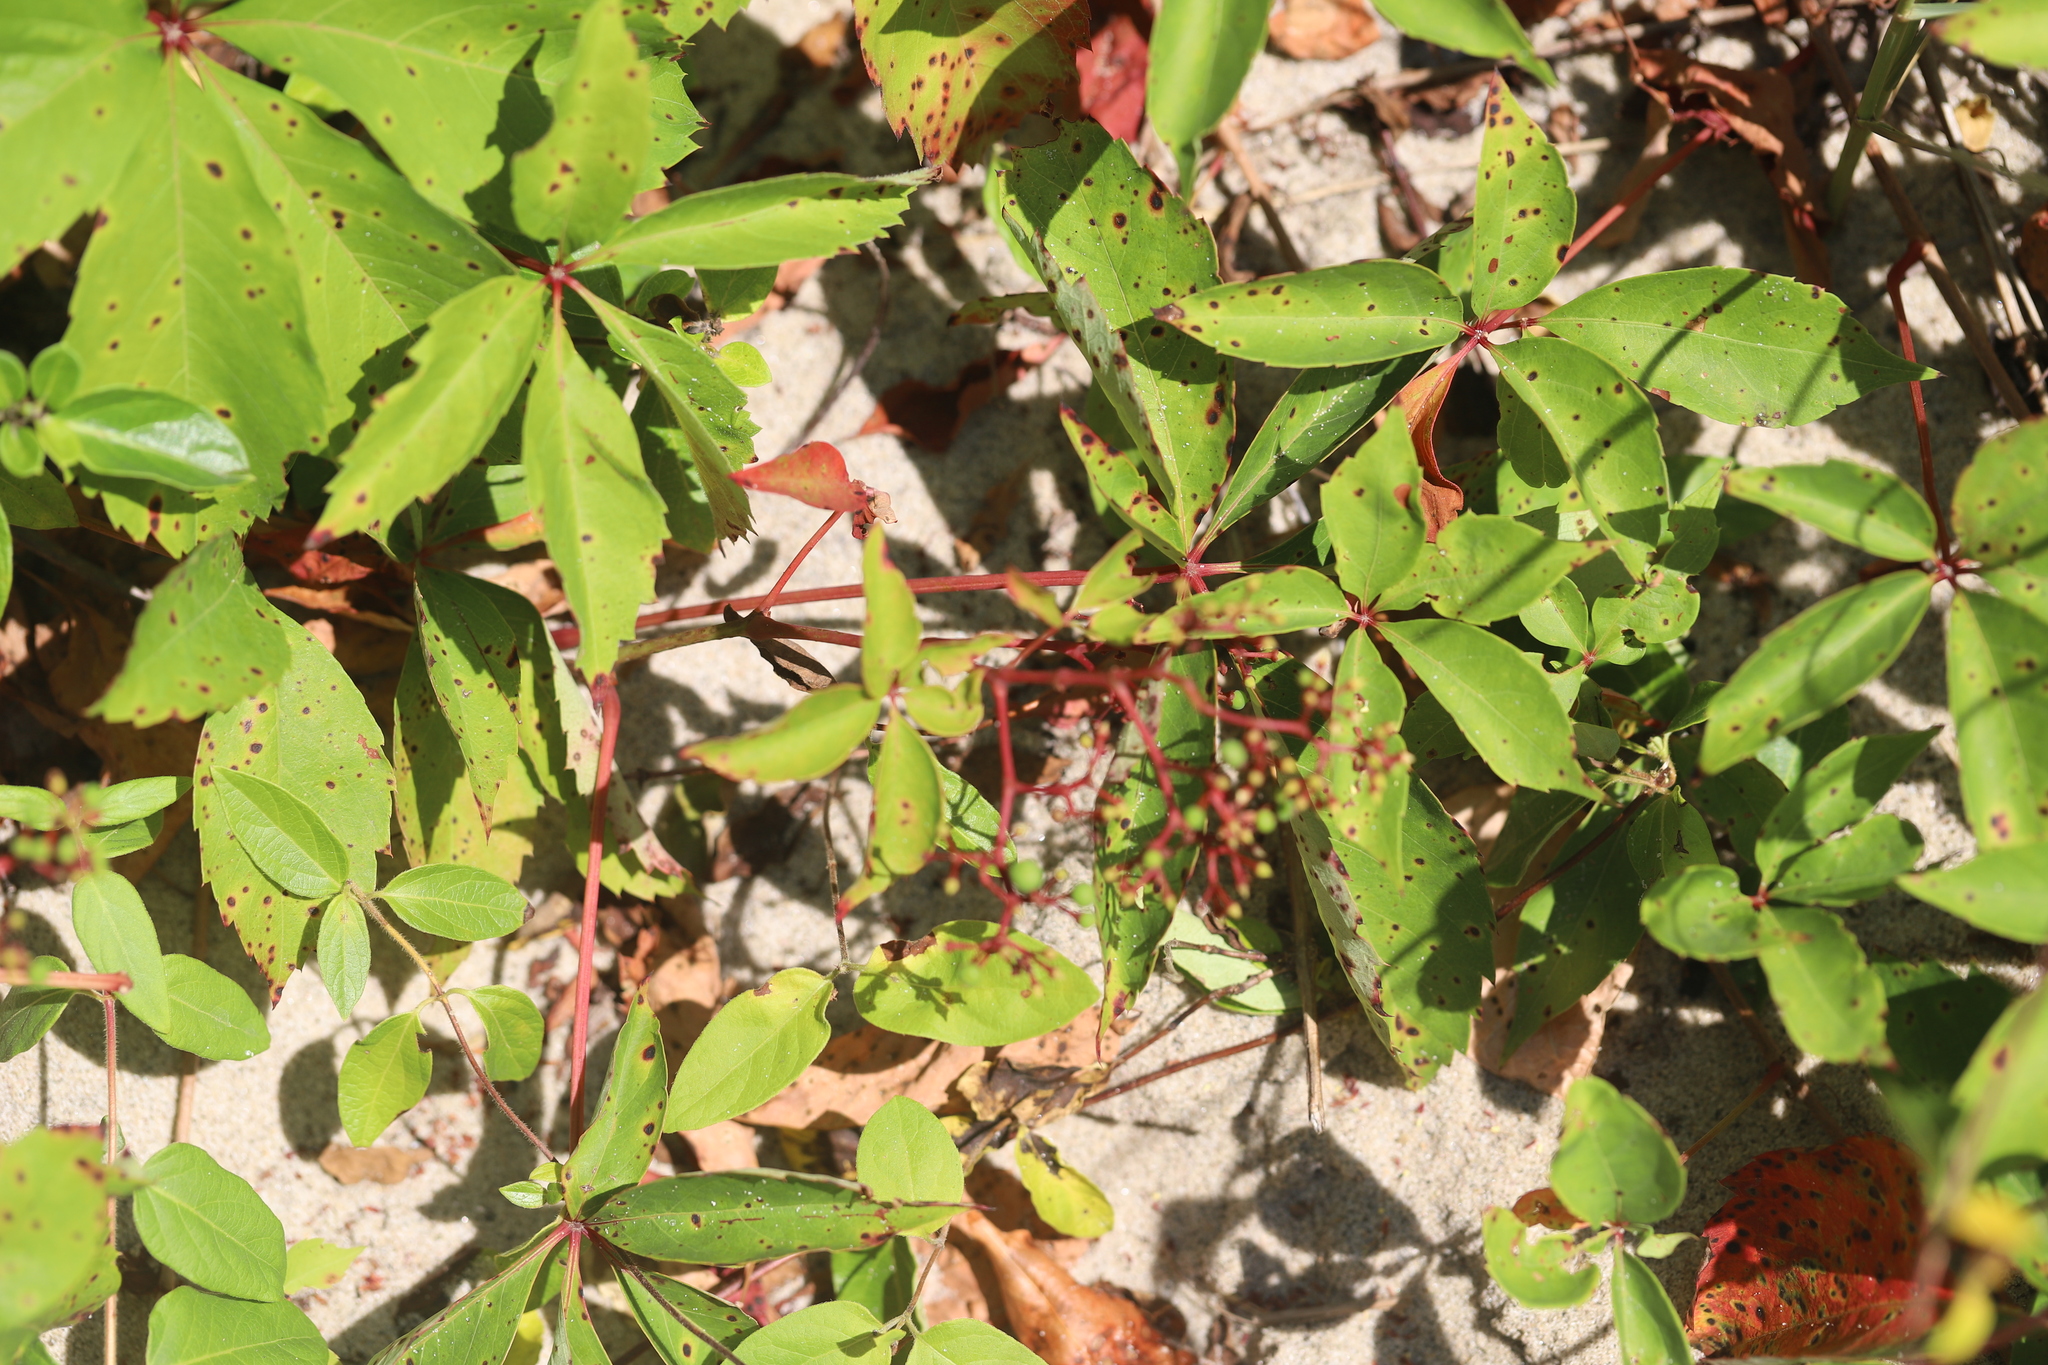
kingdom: Plantae
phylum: Tracheophyta
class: Magnoliopsida
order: Vitales
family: Vitaceae
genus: Parthenocissus
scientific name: Parthenocissus quinquefolia
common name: Virginia-creeper
